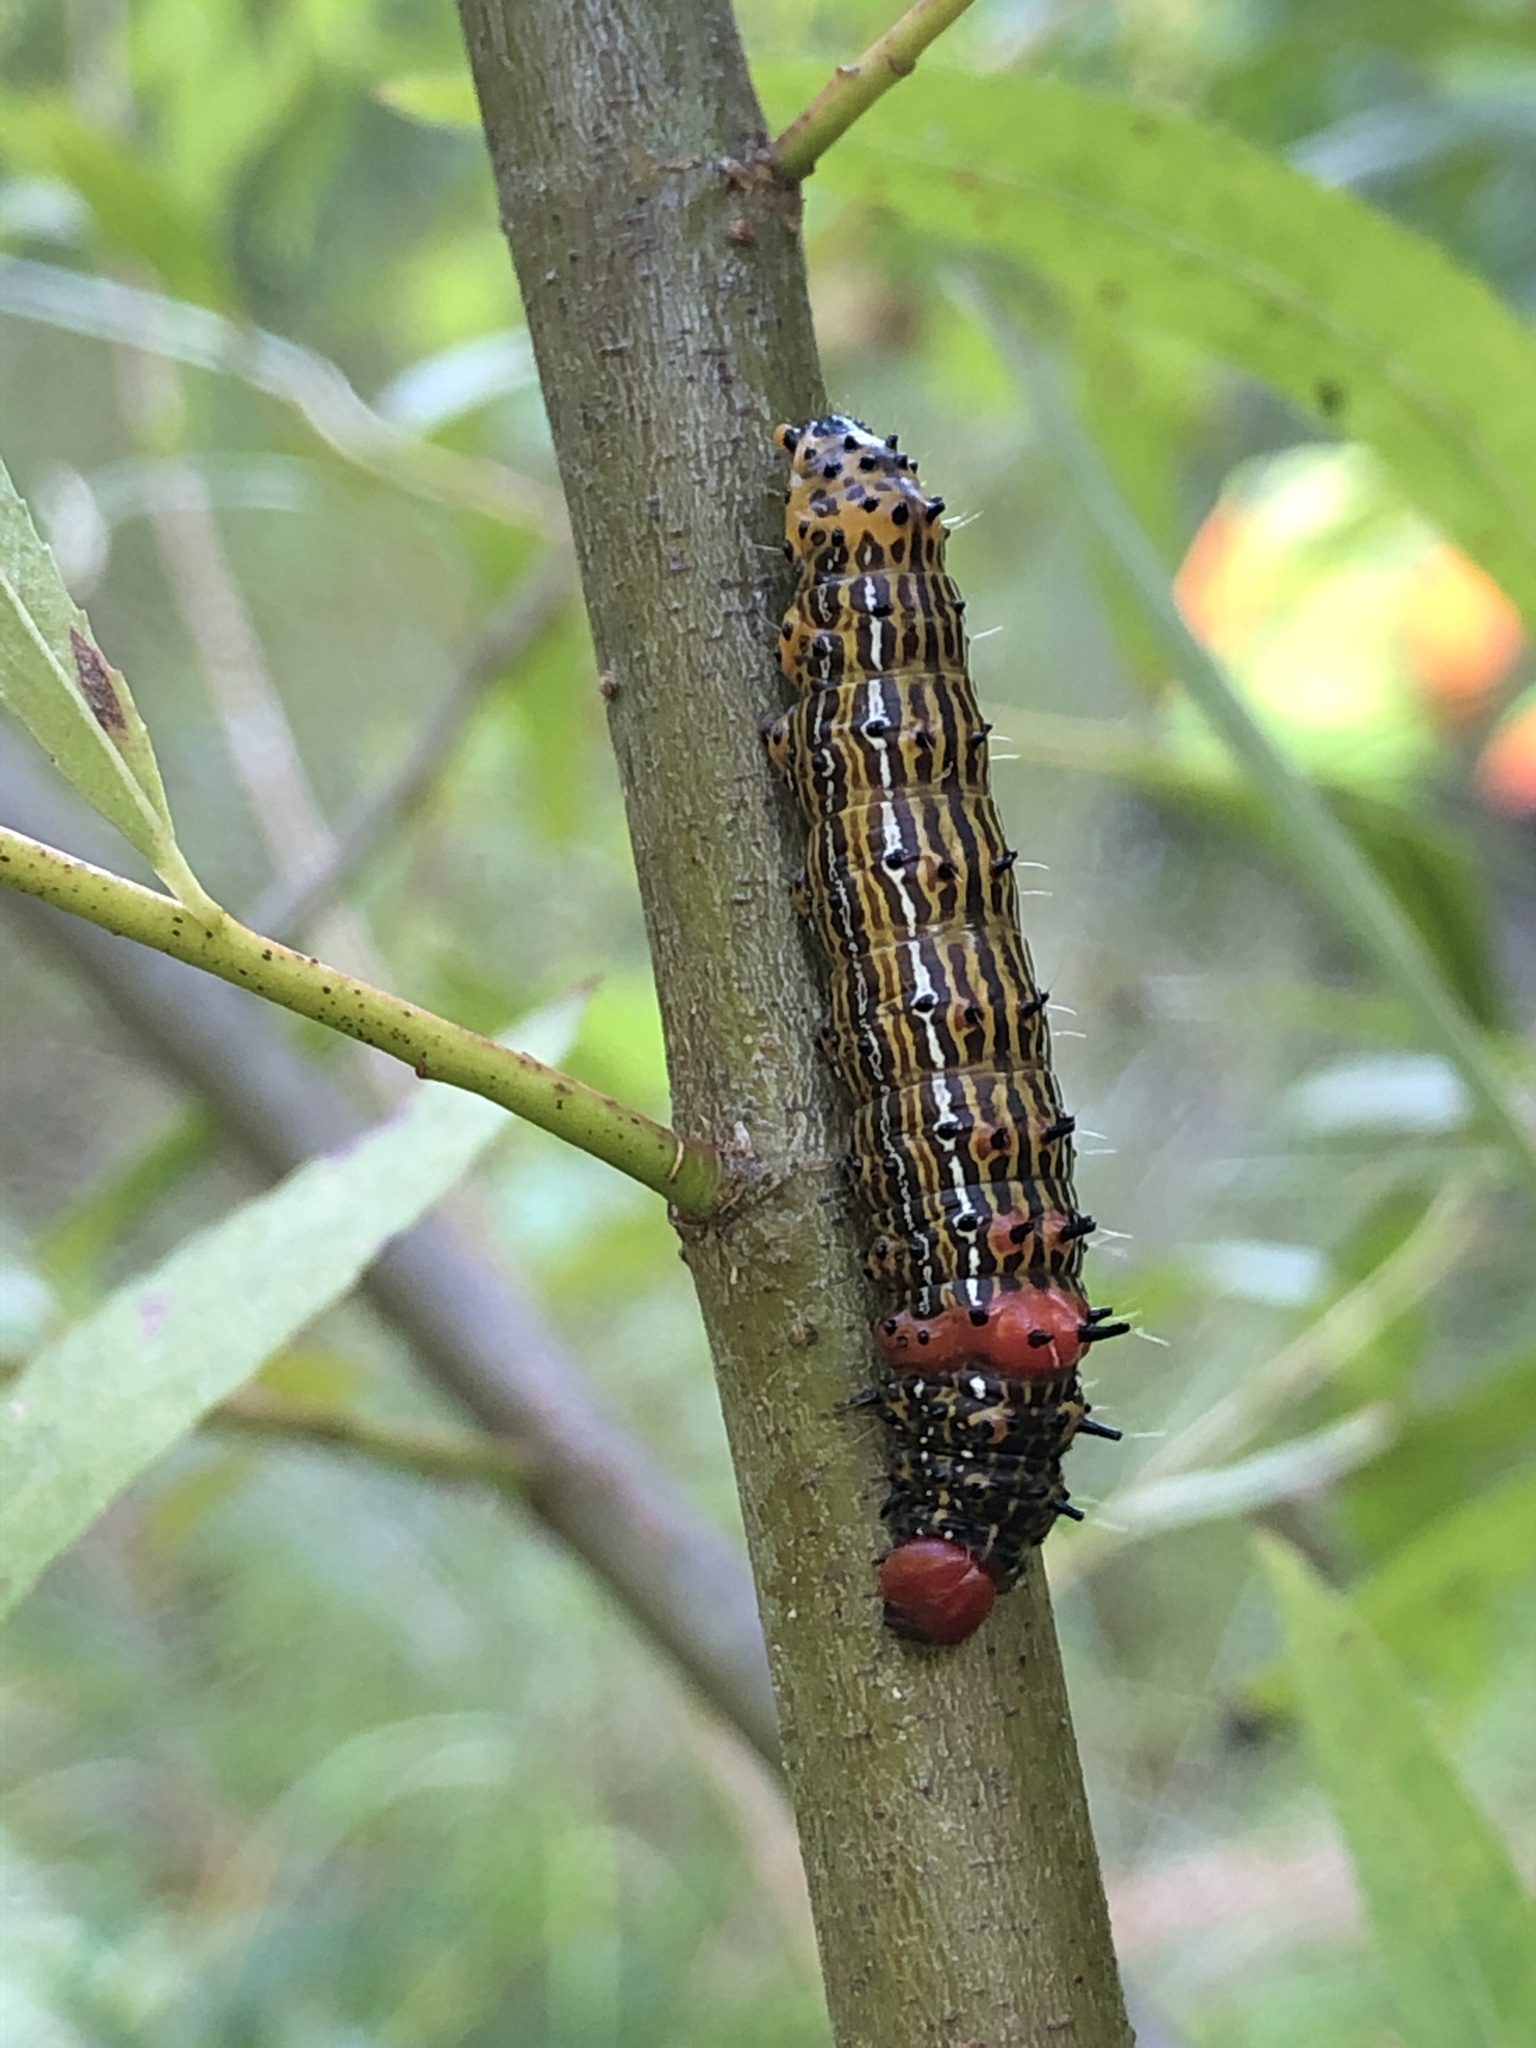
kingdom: Animalia
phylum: Arthropoda
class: Insecta
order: Lepidoptera
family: Notodontidae
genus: Schizura
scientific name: Schizura
